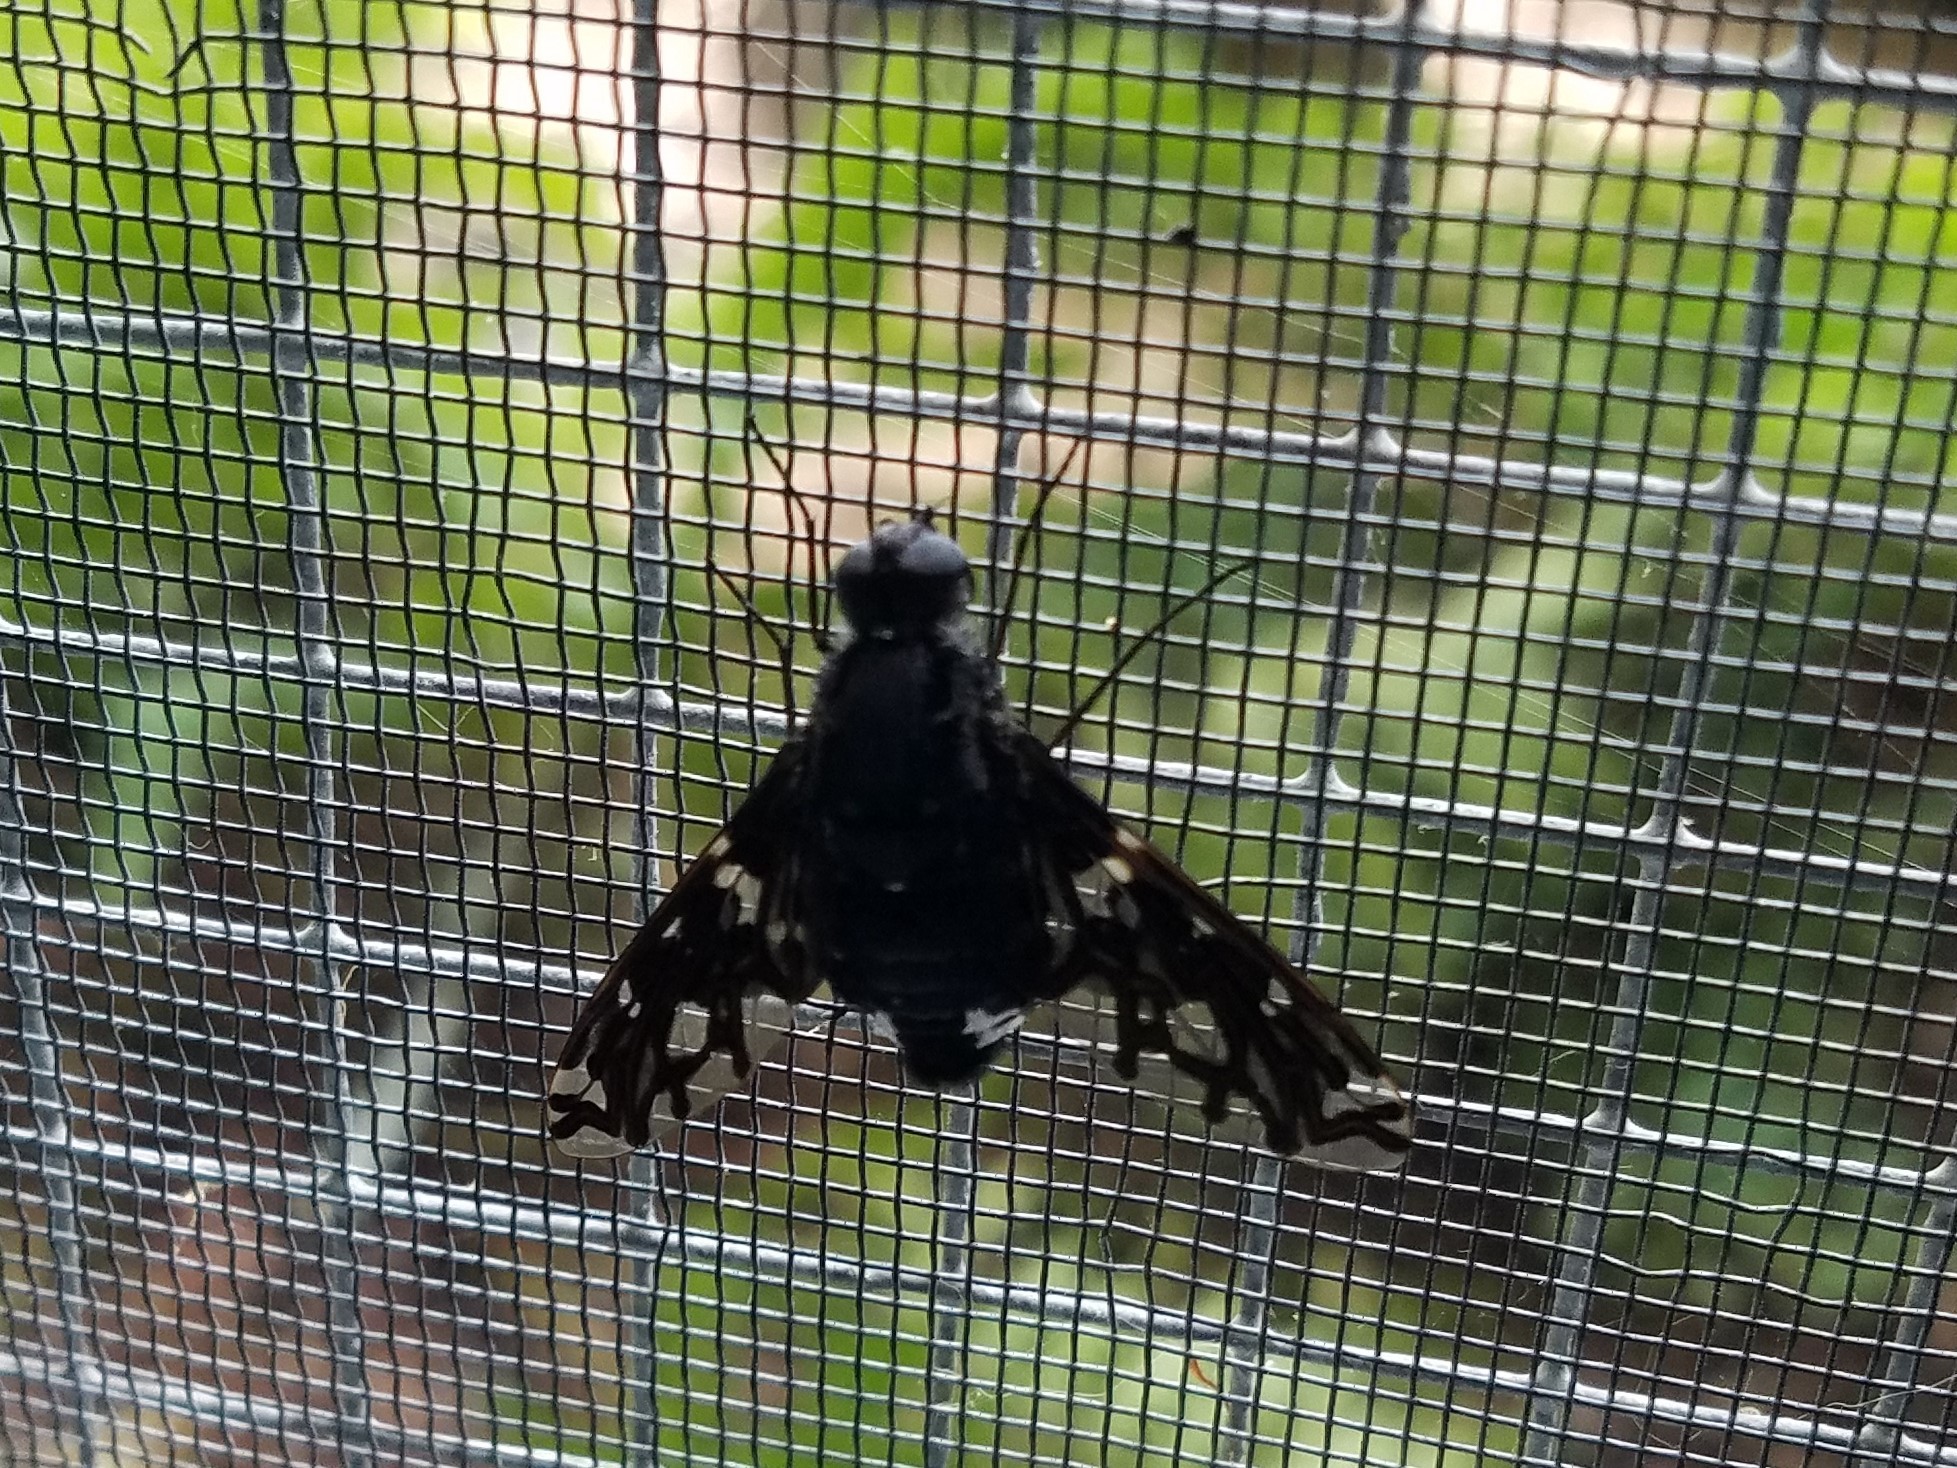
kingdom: Animalia
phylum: Arthropoda
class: Insecta
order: Diptera
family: Bombyliidae
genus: Xenox
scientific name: Xenox tigrinus
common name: Tiger bee fly
